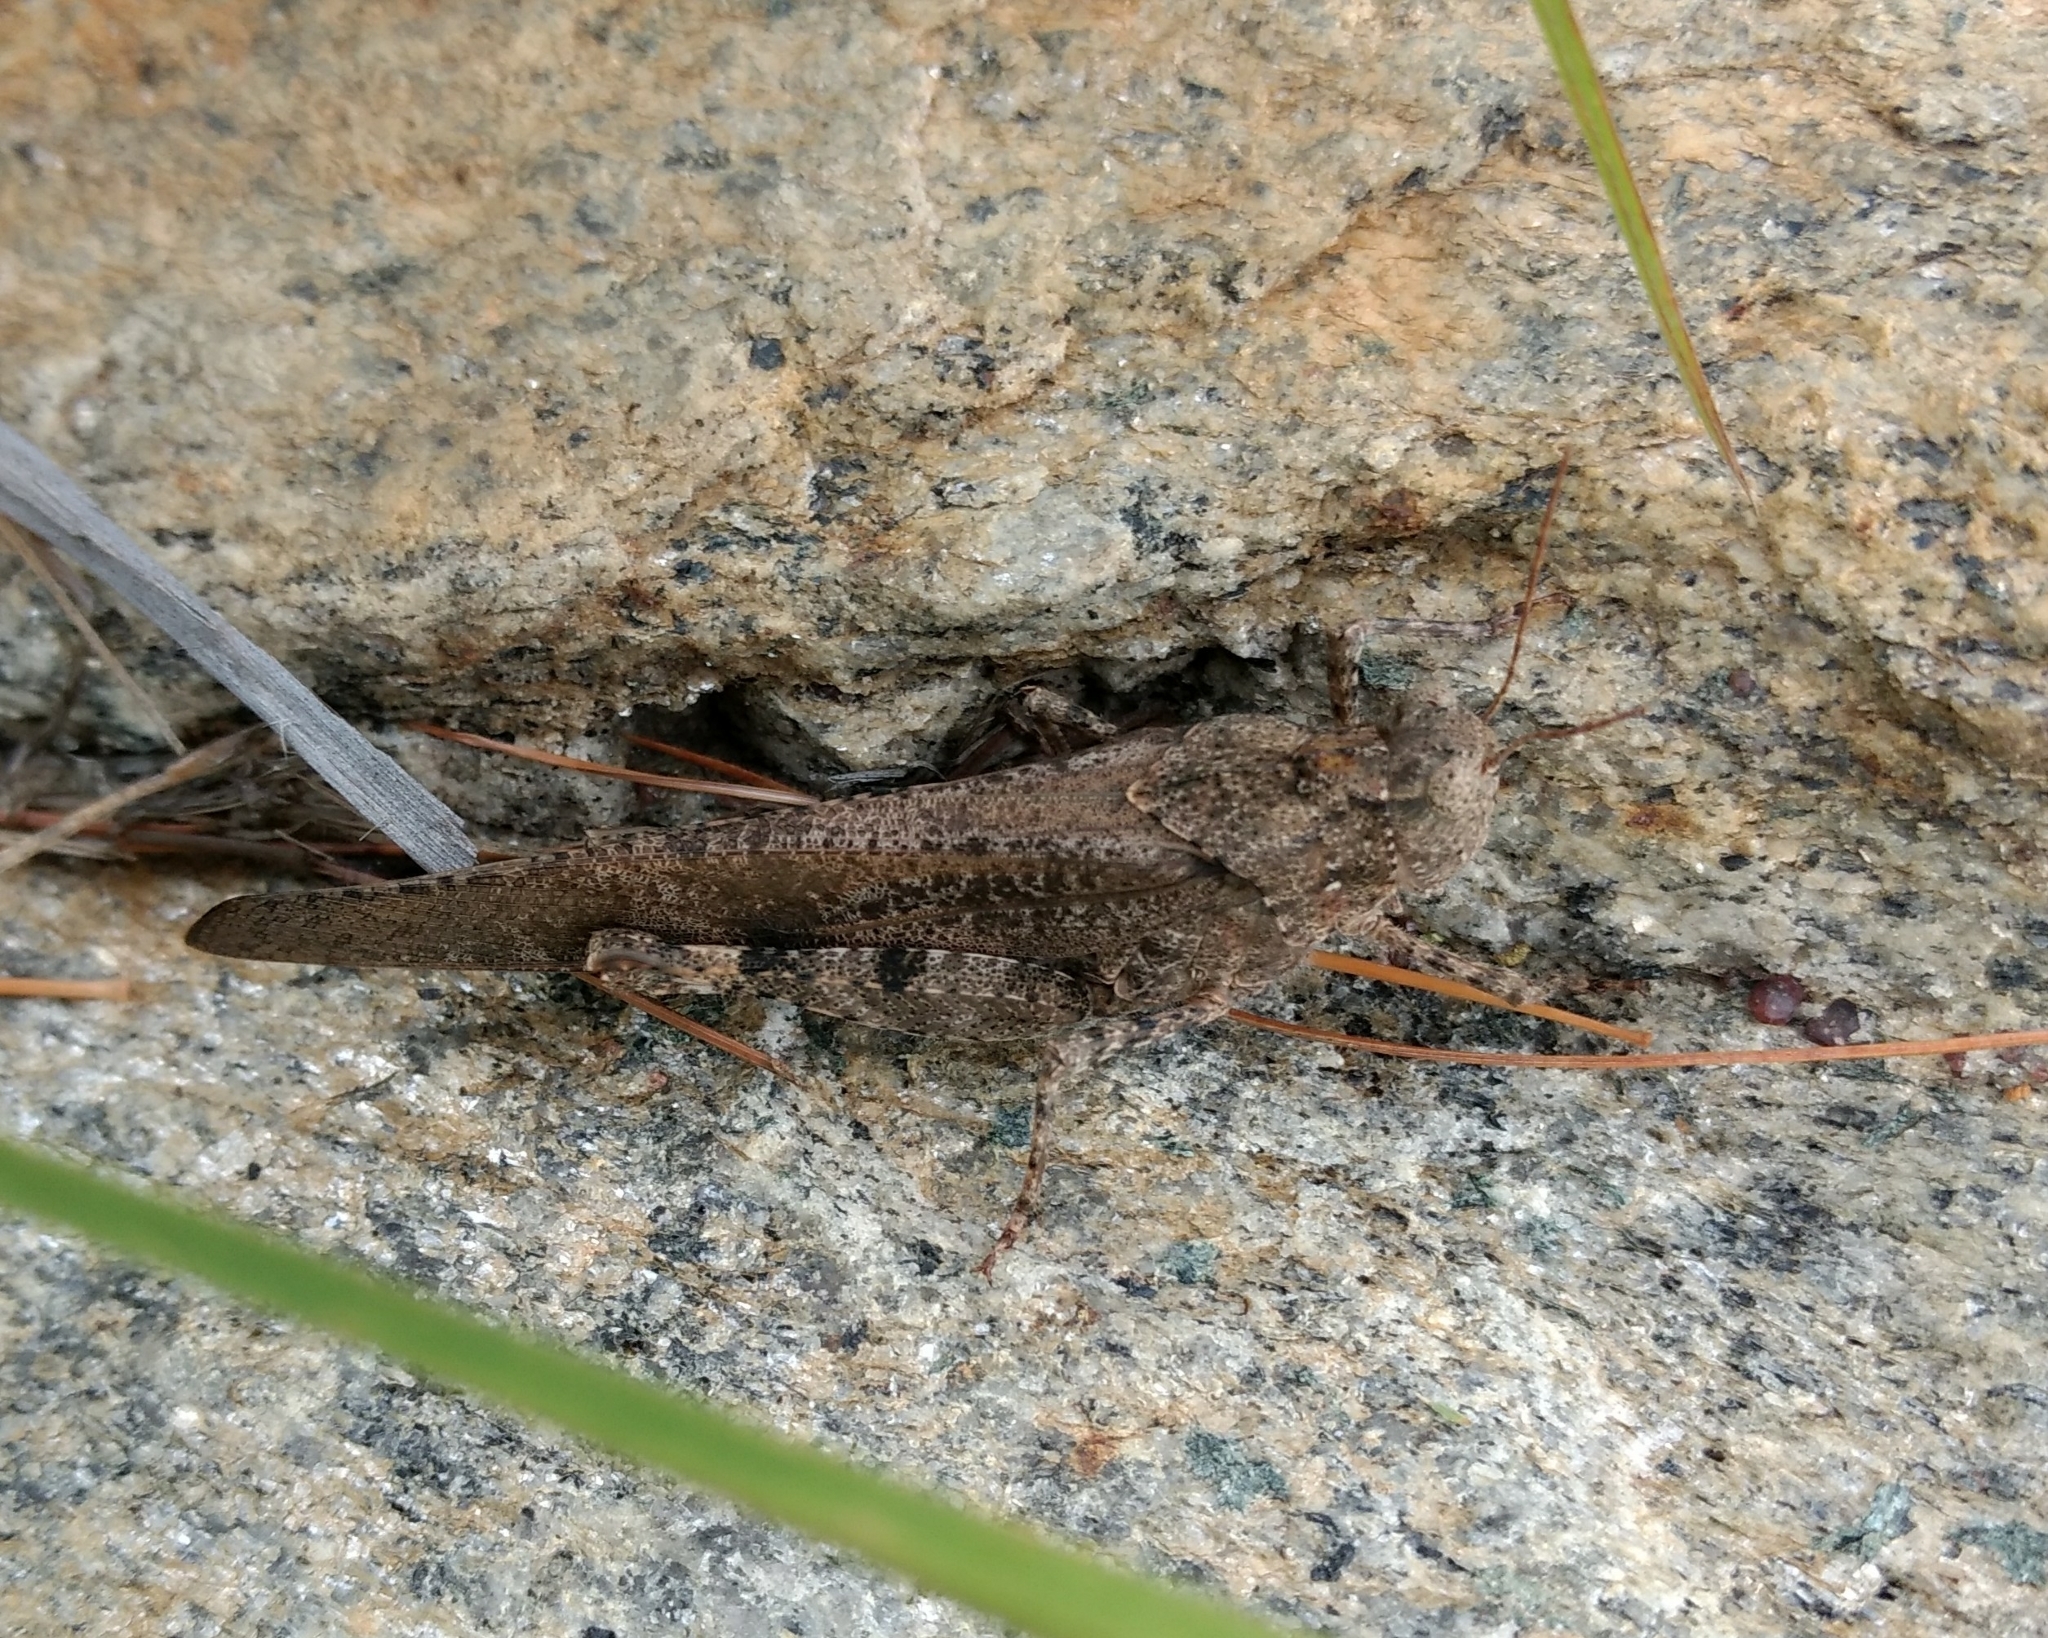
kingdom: Animalia
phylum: Arthropoda
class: Insecta
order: Orthoptera
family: Acrididae
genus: Dissosteira
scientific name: Dissosteira carolina
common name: Carolina grasshopper
